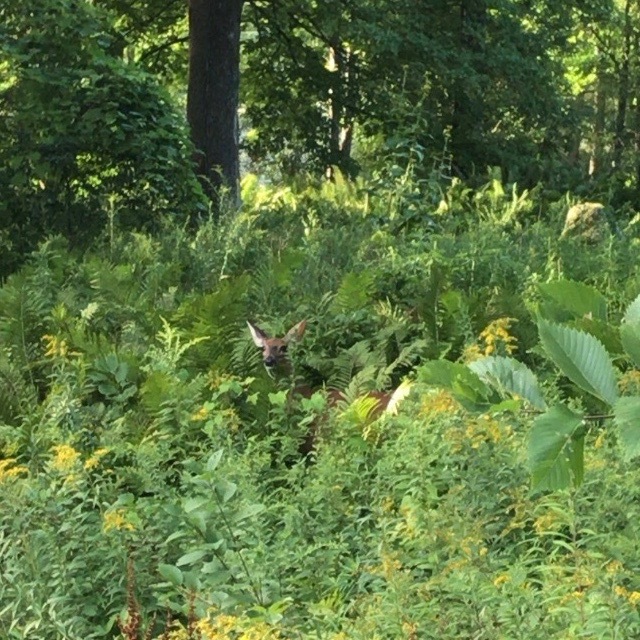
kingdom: Animalia
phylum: Chordata
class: Mammalia
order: Artiodactyla
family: Cervidae
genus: Odocoileus
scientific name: Odocoileus virginianus
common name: White-tailed deer
